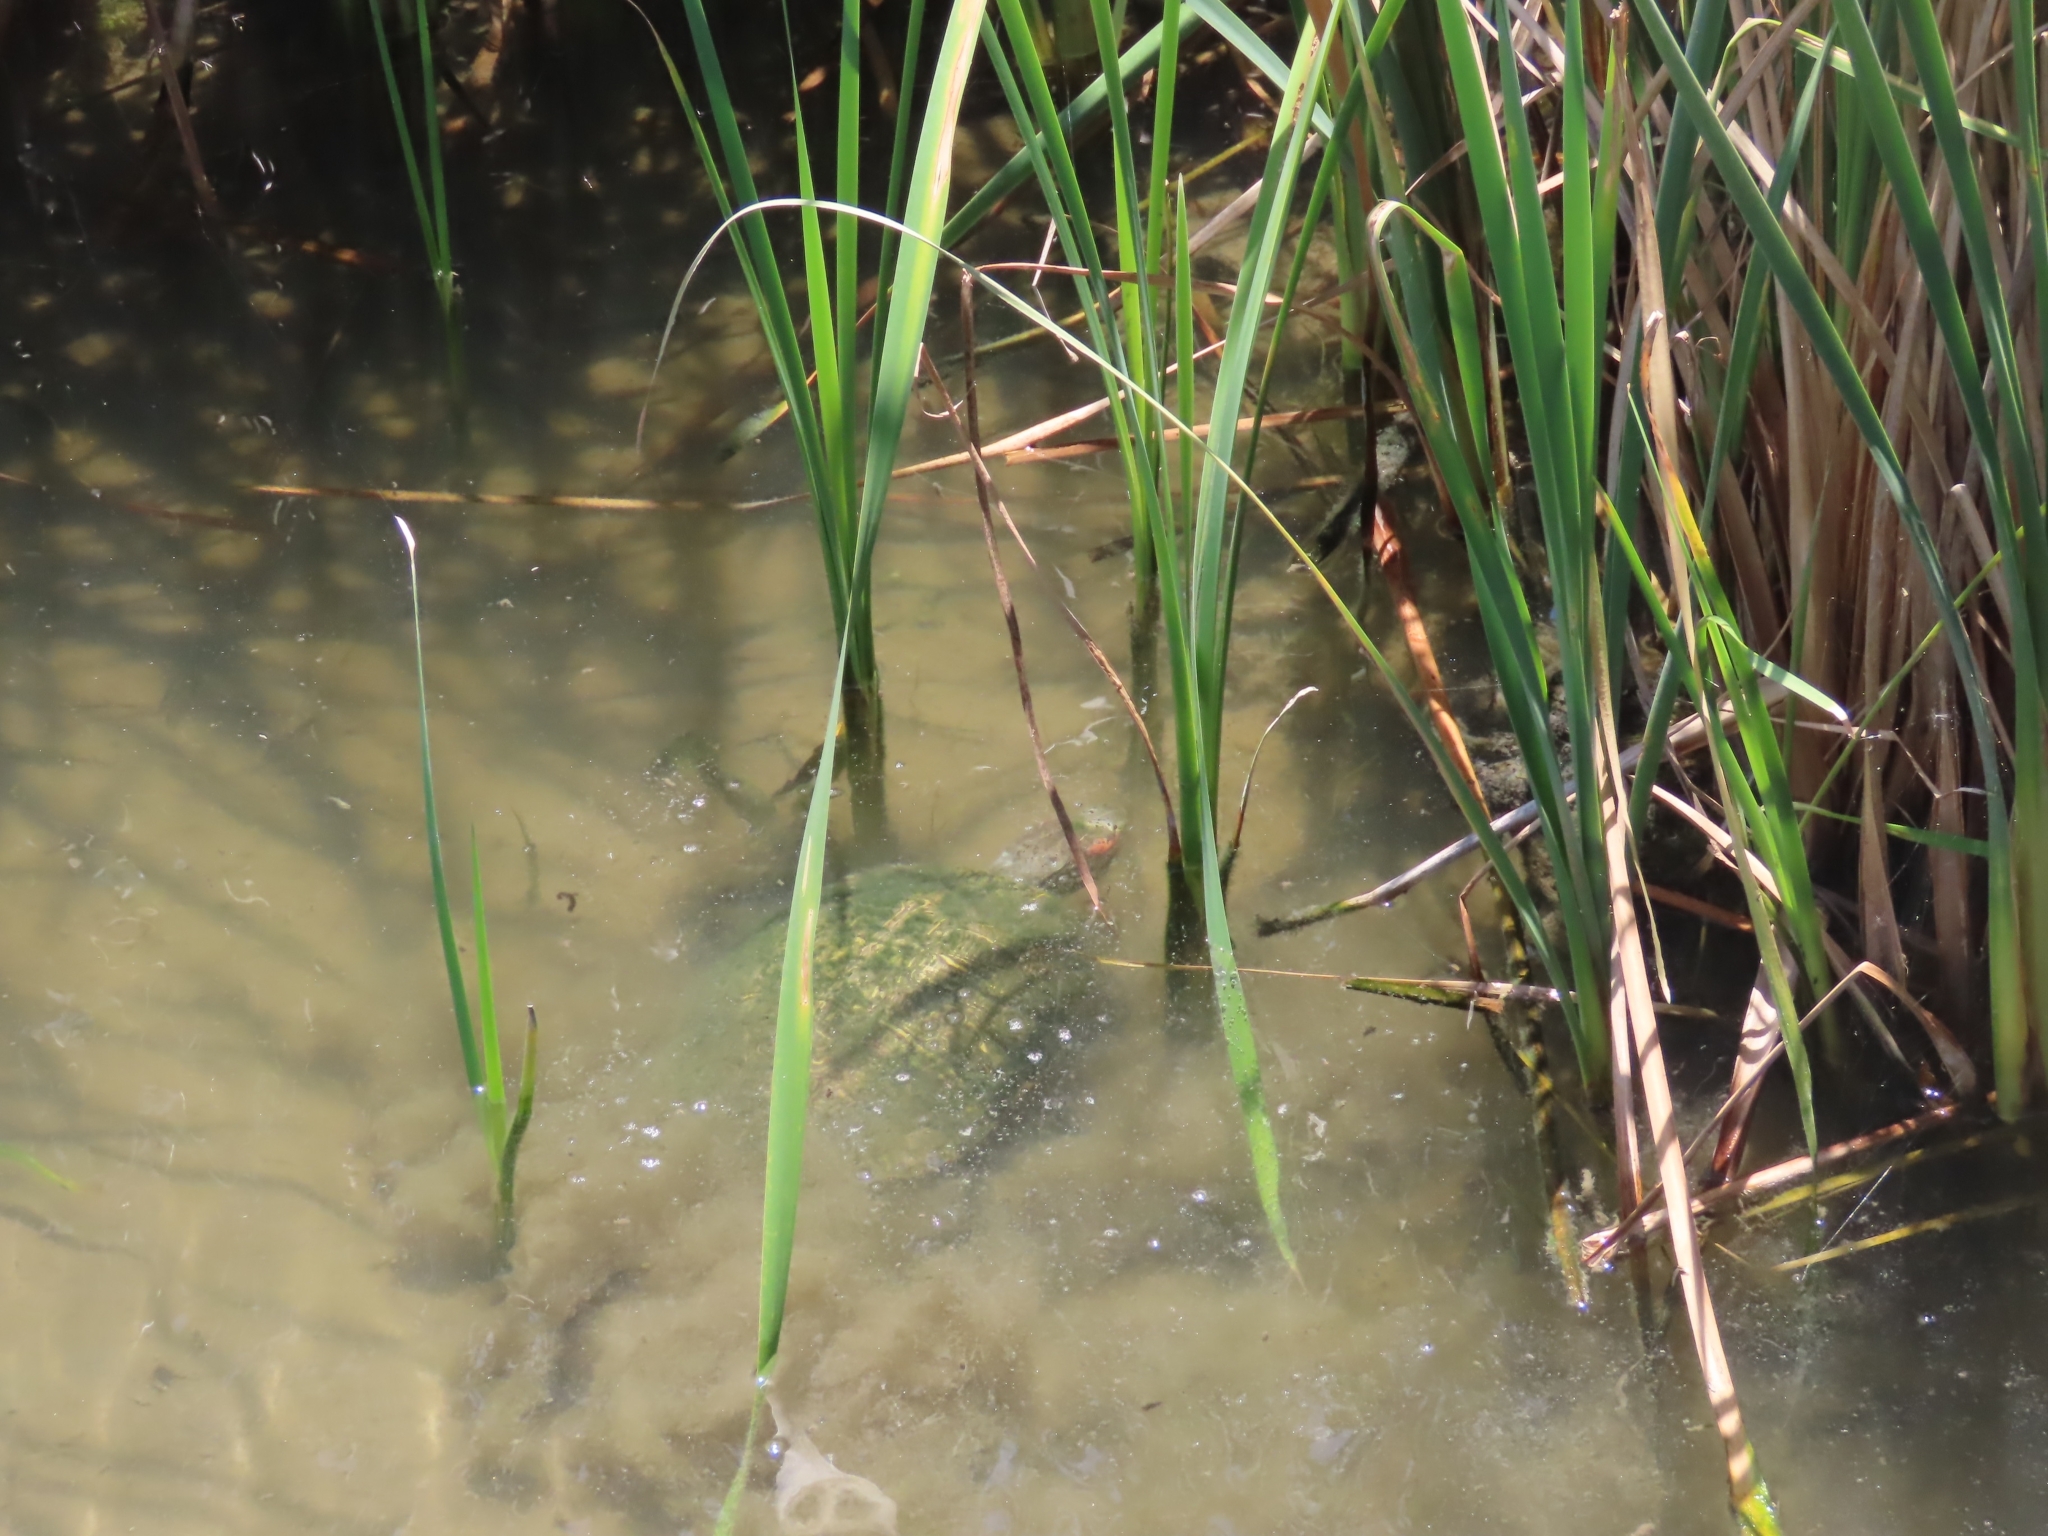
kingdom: Animalia
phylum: Chordata
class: Testudines
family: Emydidae
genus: Trachemys
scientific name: Trachemys scripta
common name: Slider
